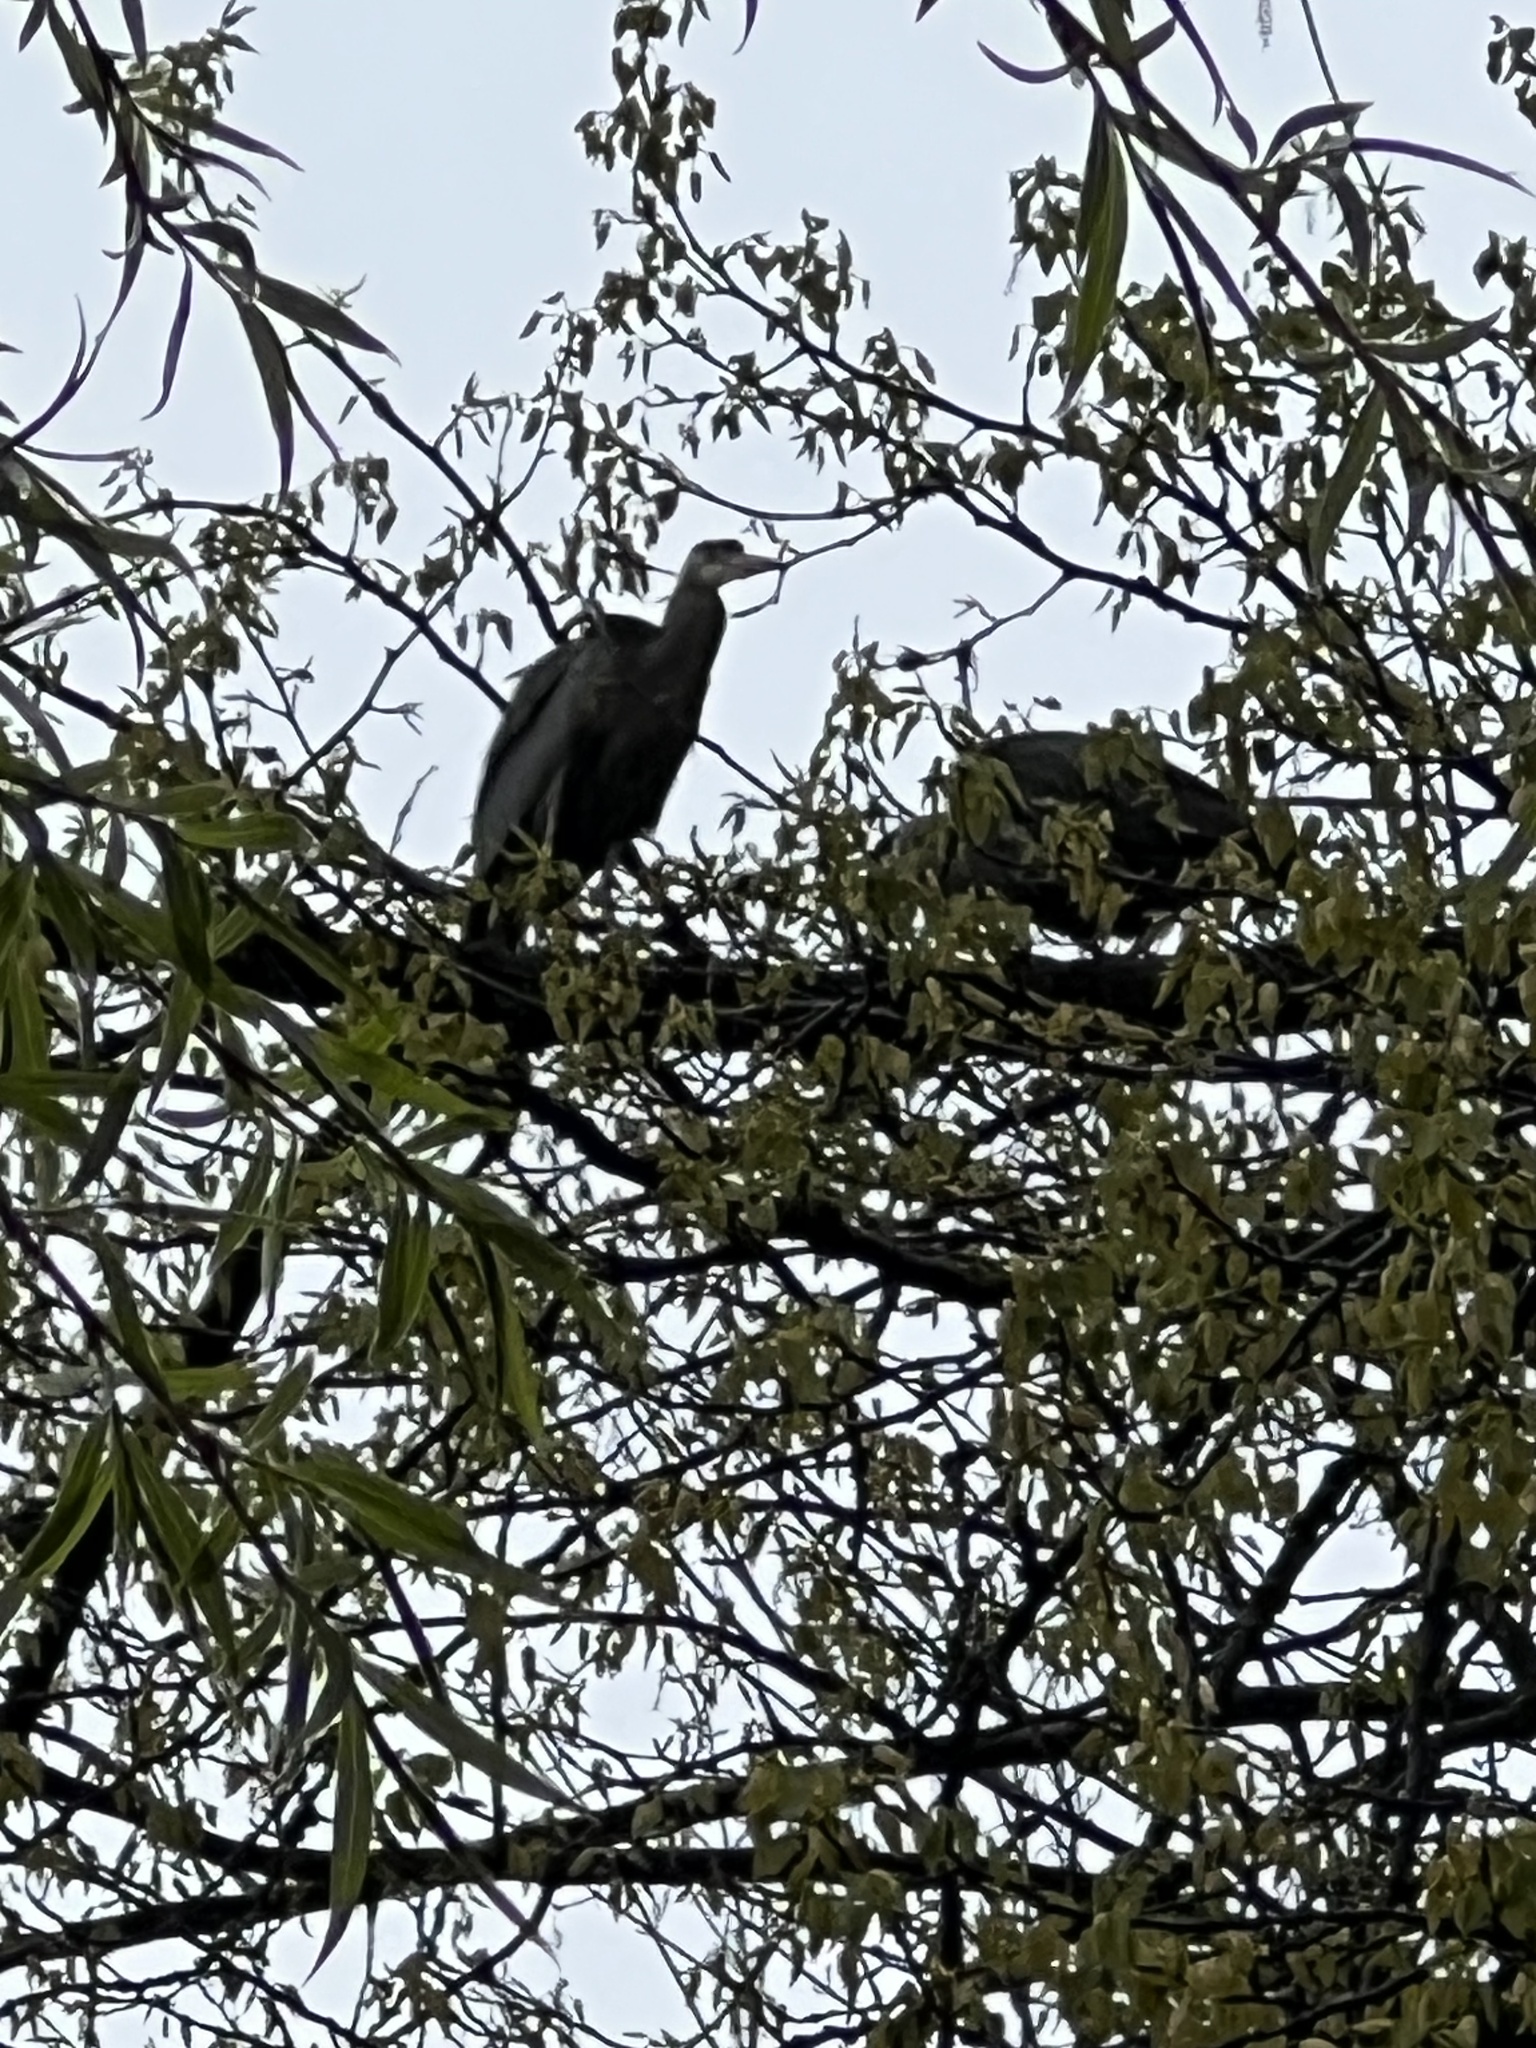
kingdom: Animalia
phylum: Chordata
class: Aves
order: Pelecaniformes
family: Ardeidae
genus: Ardea
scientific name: Ardea herodias
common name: Great blue heron
